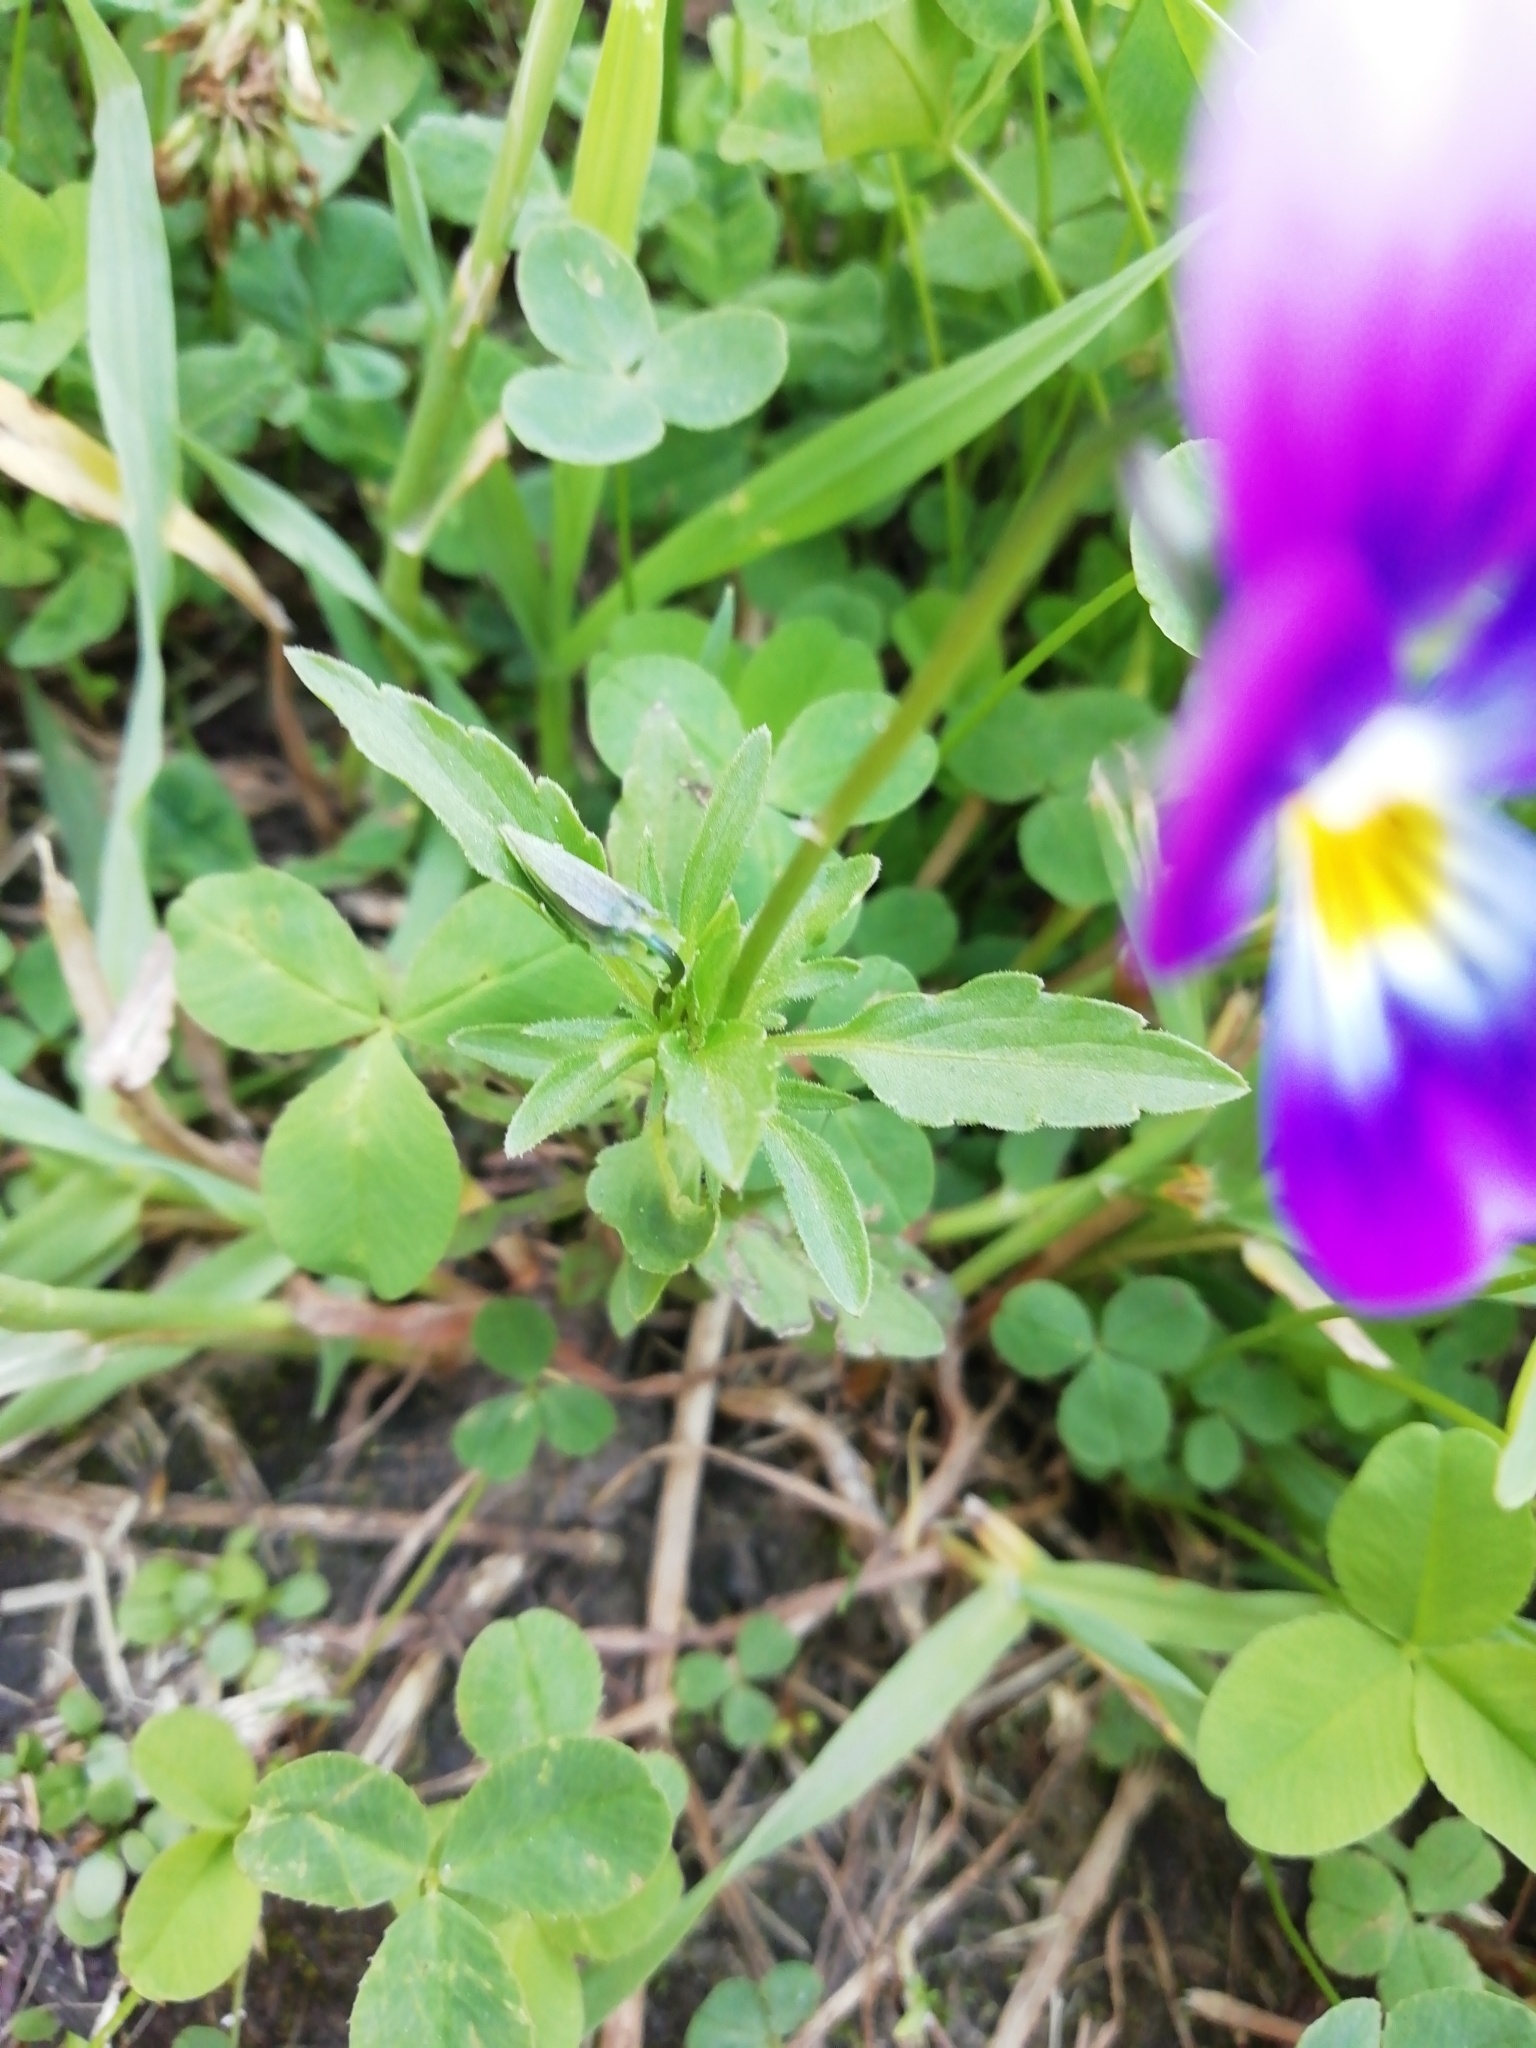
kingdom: Plantae
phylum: Tracheophyta
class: Magnoliopsida
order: Malpighiales
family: Violaceae
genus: Viola
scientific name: Viola tricolor
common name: Pansy
